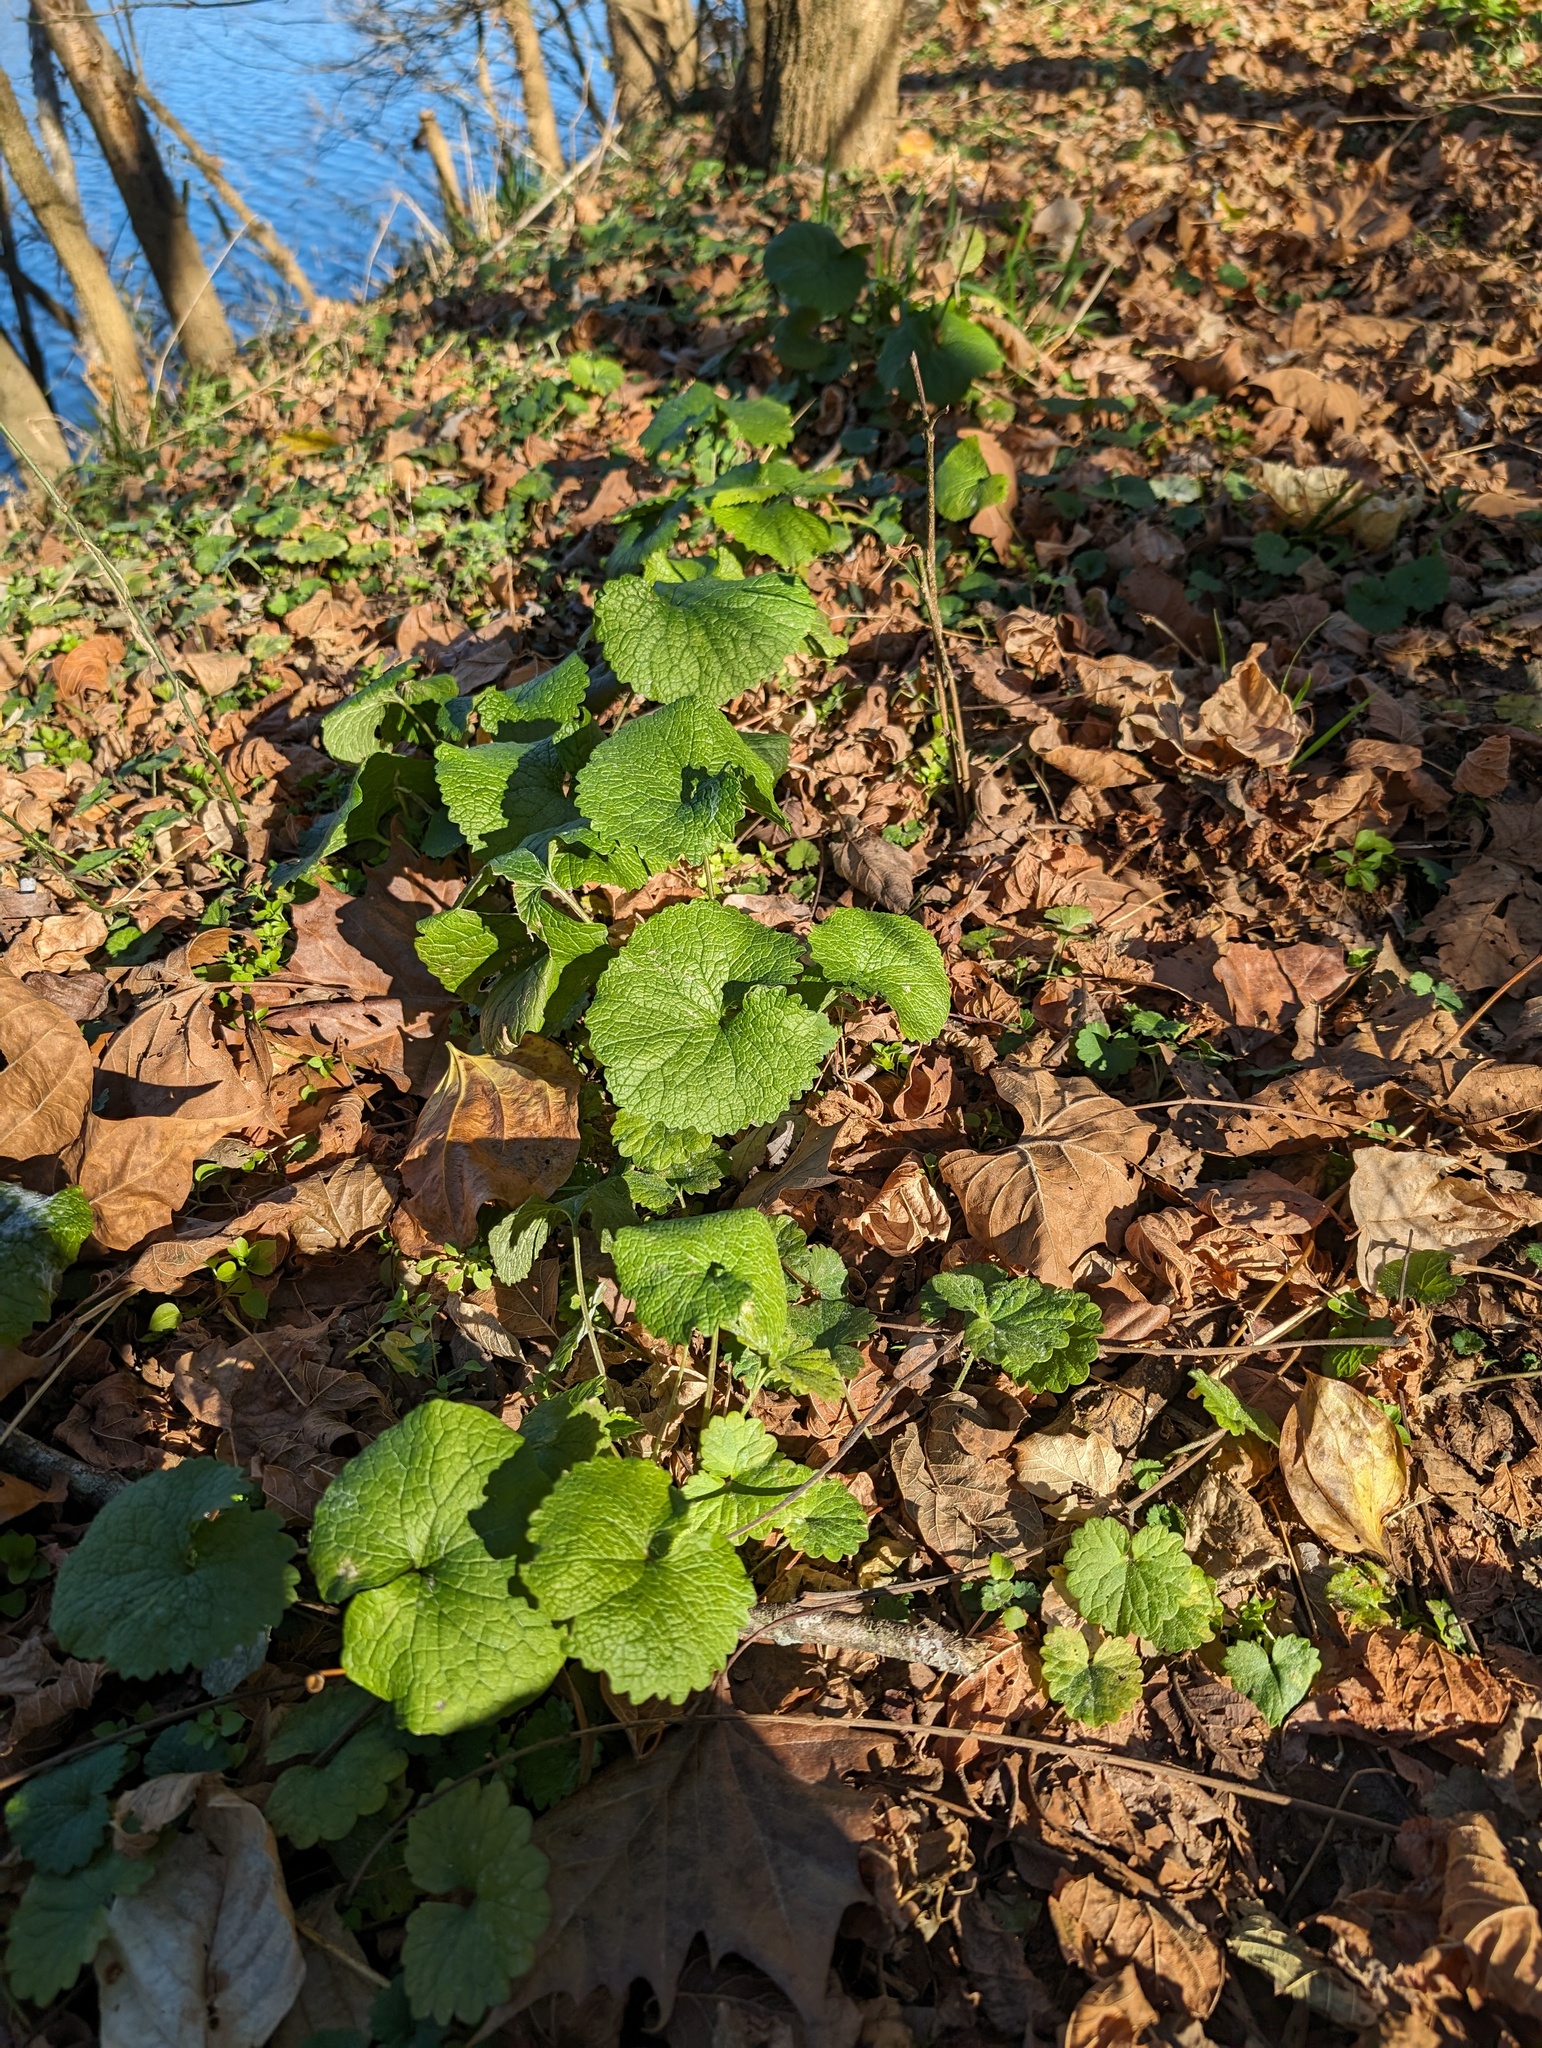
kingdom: Plantae
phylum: Tracheophyta
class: Magnoliopsida
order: Brassicales
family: Brassicaceae
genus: Alliaria
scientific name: Alliaria petiolata
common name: Garlic mustard
